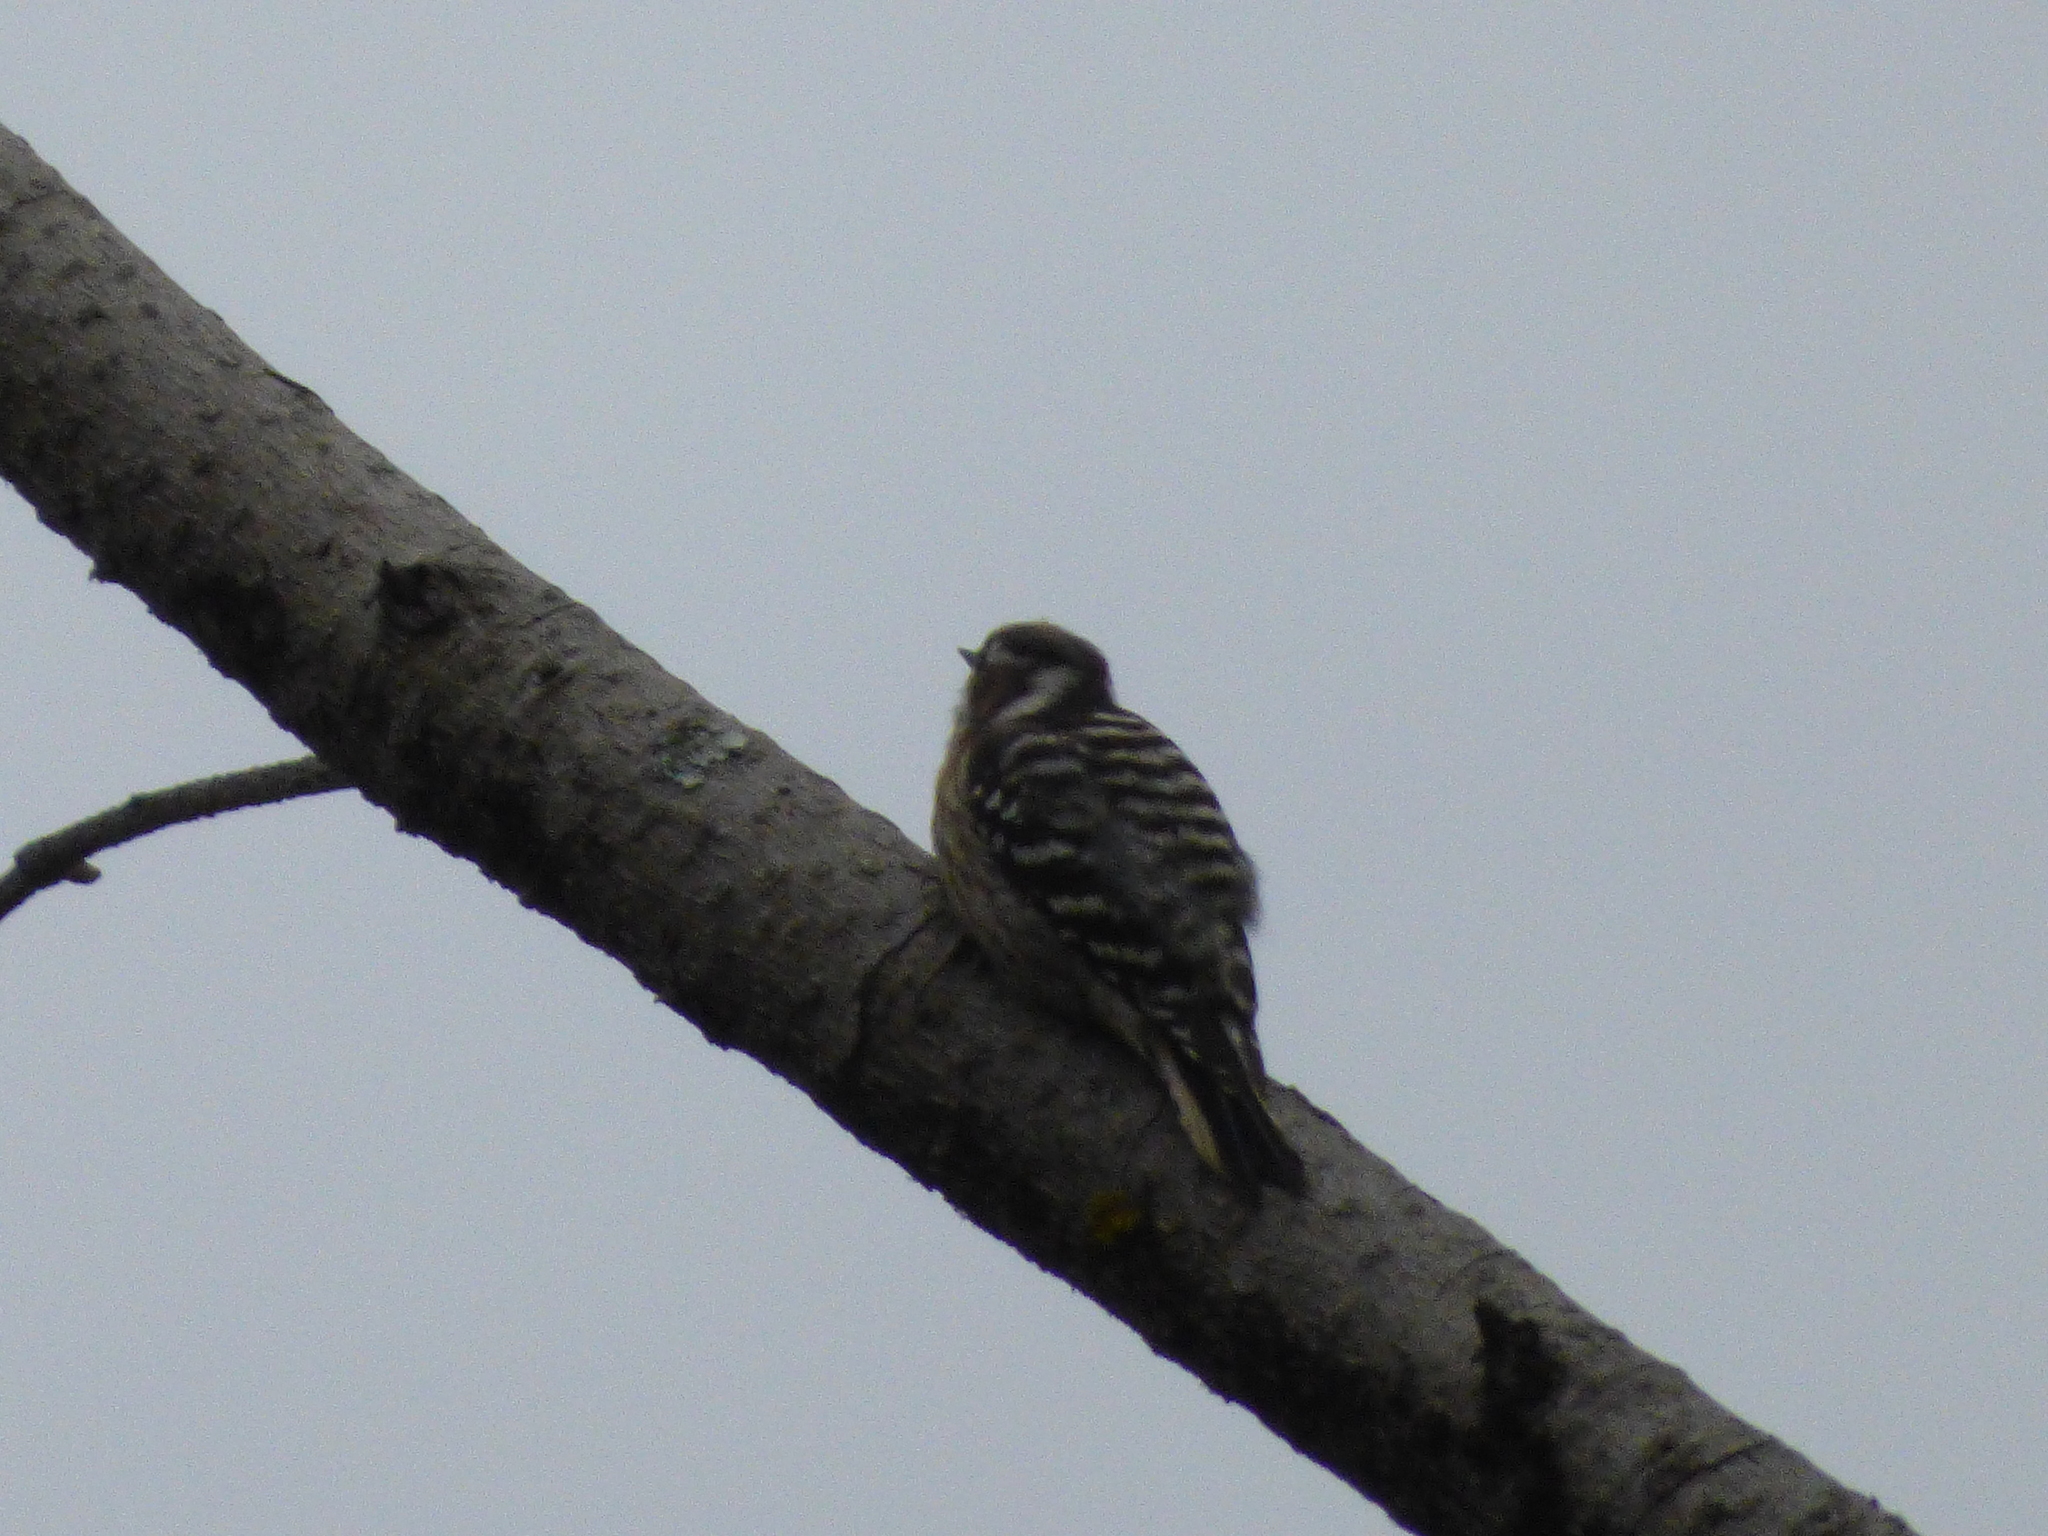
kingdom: Animalia
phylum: Chordata
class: Aves
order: Piciformes
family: Picidae
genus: Yungipicus
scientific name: Yungipicus kizuki
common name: Japanese pygmy woodpecker
